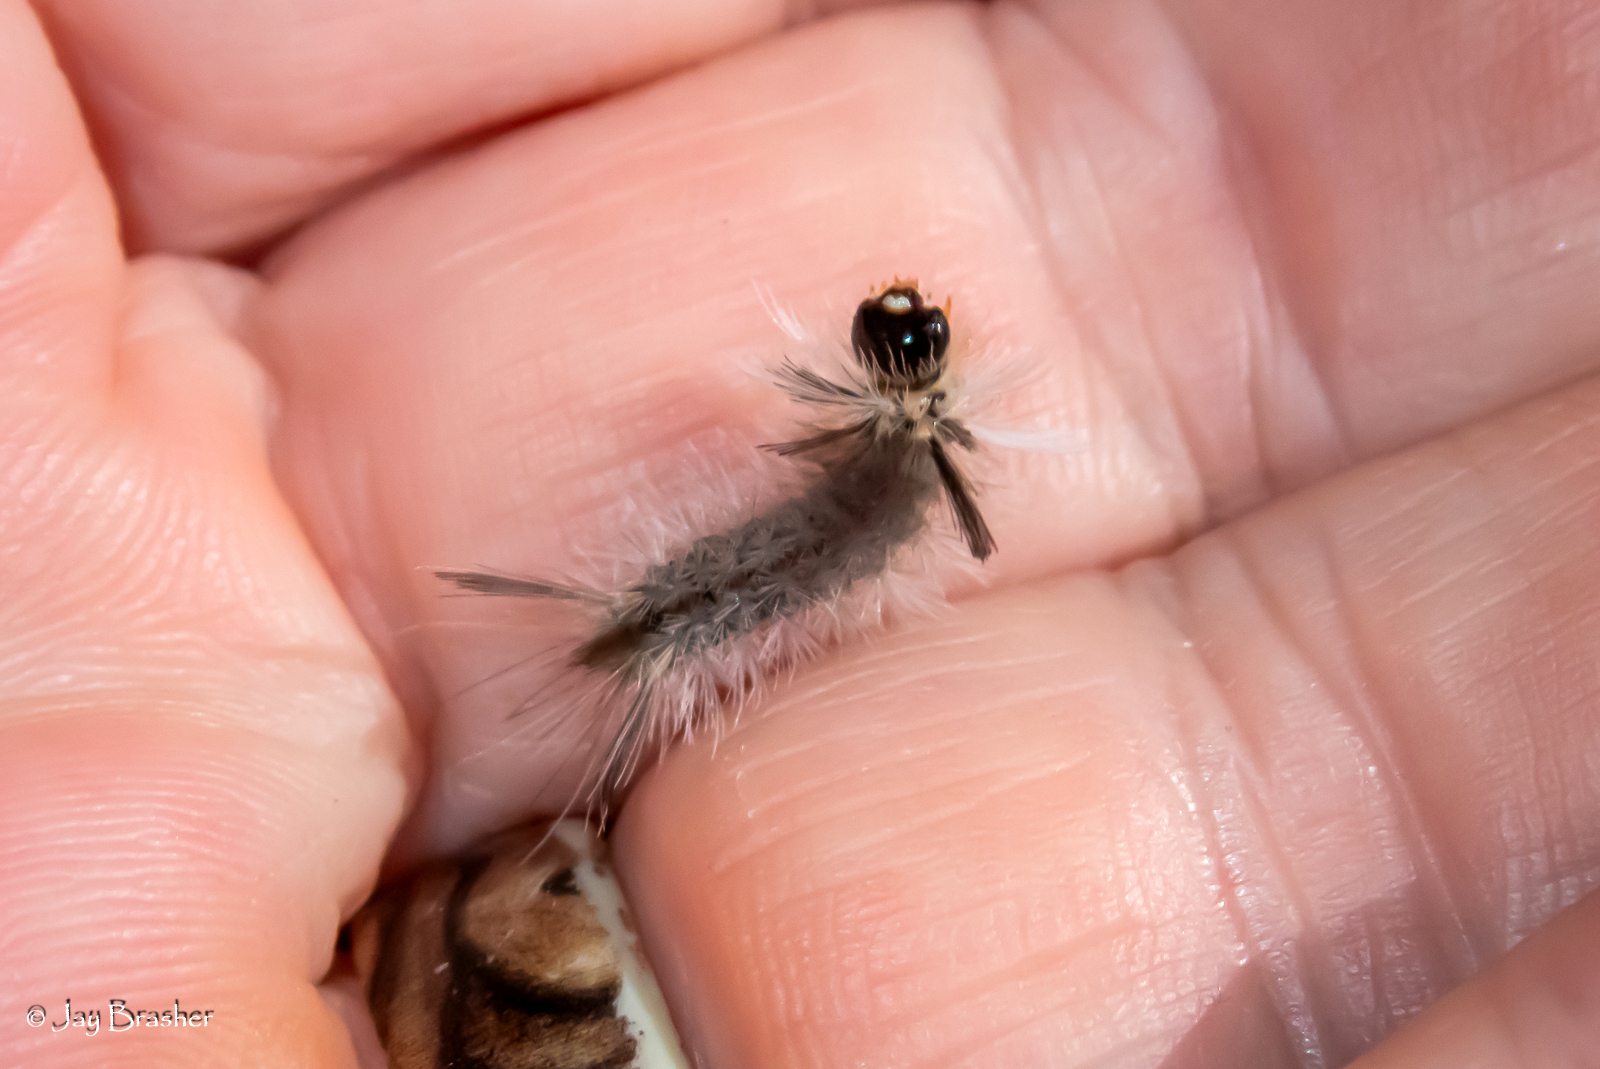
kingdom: Animalia
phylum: Arthropoda
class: Insecta
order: Lepidoptera
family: Erebidae
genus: Halysidota
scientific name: Halysidota tessellaris
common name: Banded tussock moth
